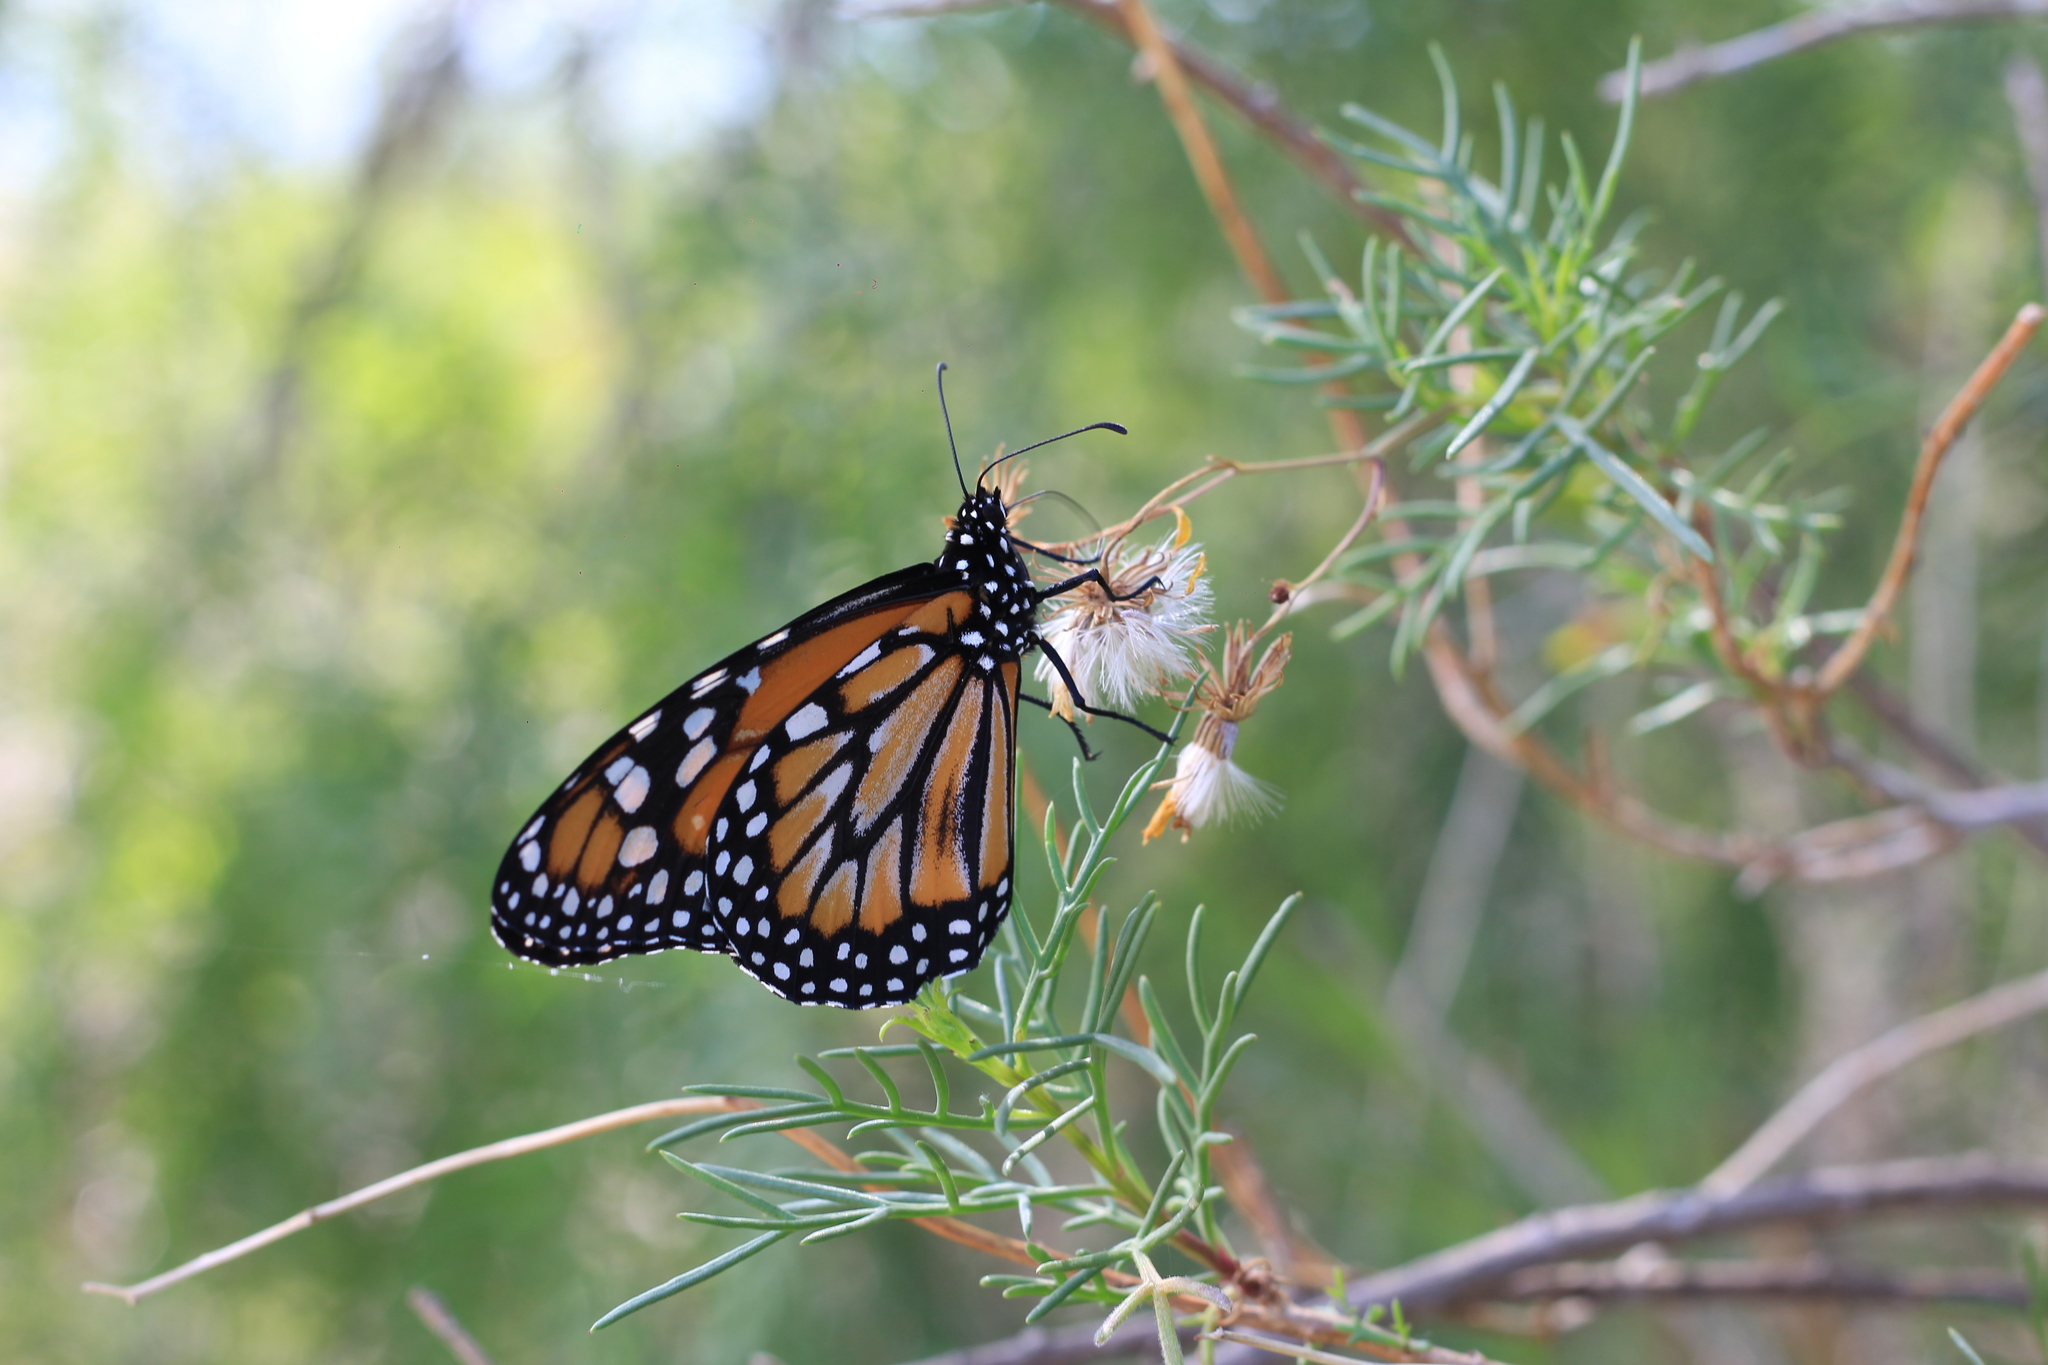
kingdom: Animalia
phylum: Arthropoda
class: Insecta
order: Lepidoptera
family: Nymphalidae
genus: Danaus
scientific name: Danaus erippus
